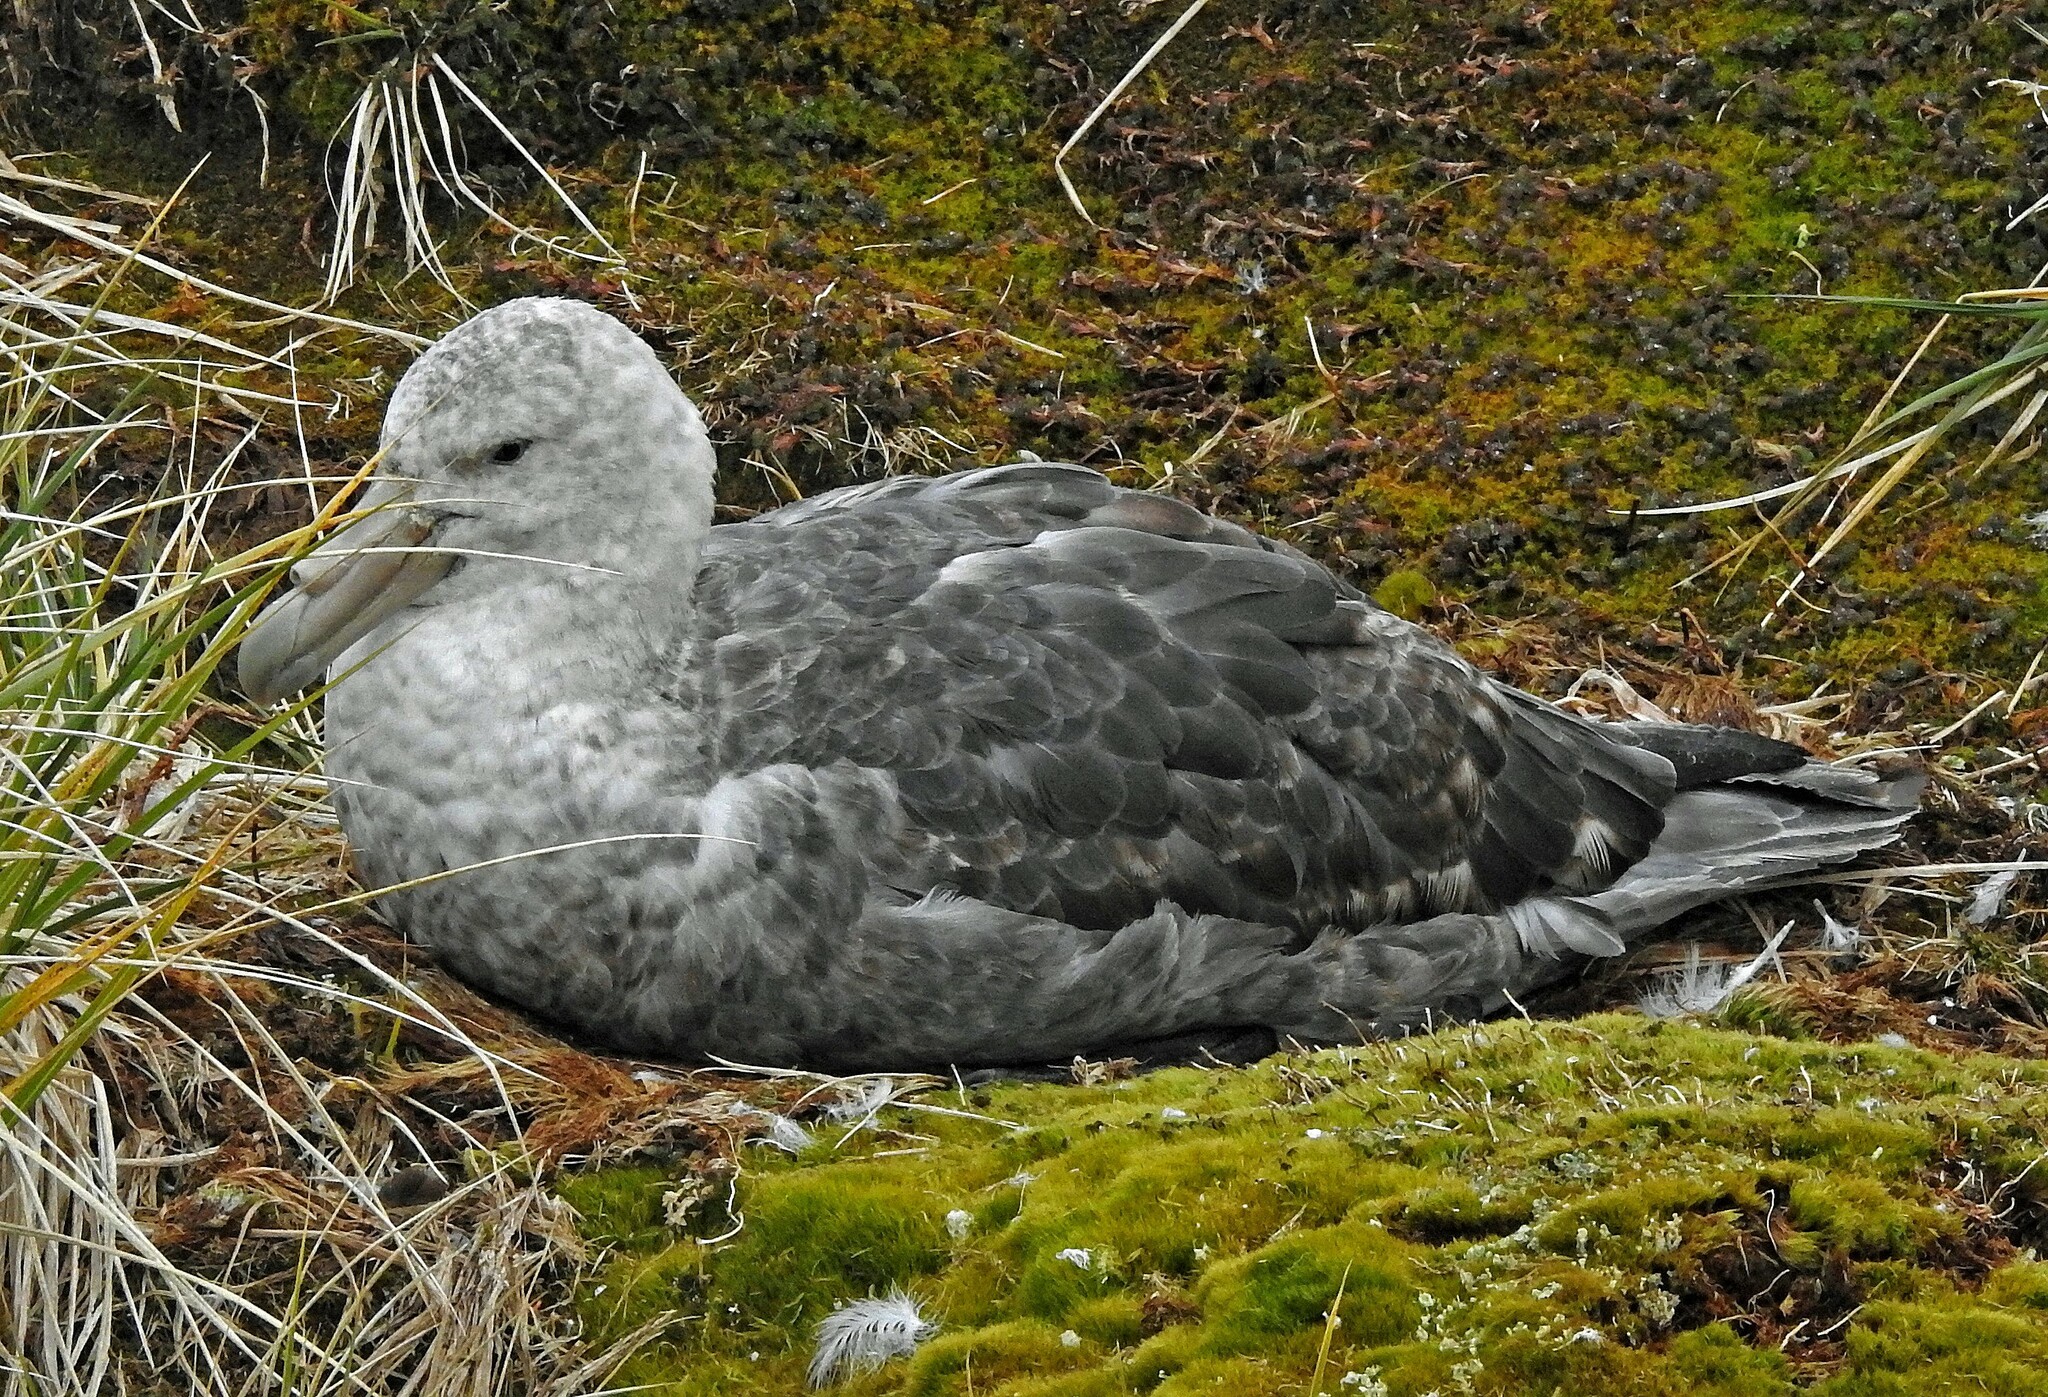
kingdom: Animalia
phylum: Chordata
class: Aves
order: Procellariiformes
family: Procellariidae
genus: Macronectes
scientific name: Macronectes giganteus
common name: Southern giant petrel
